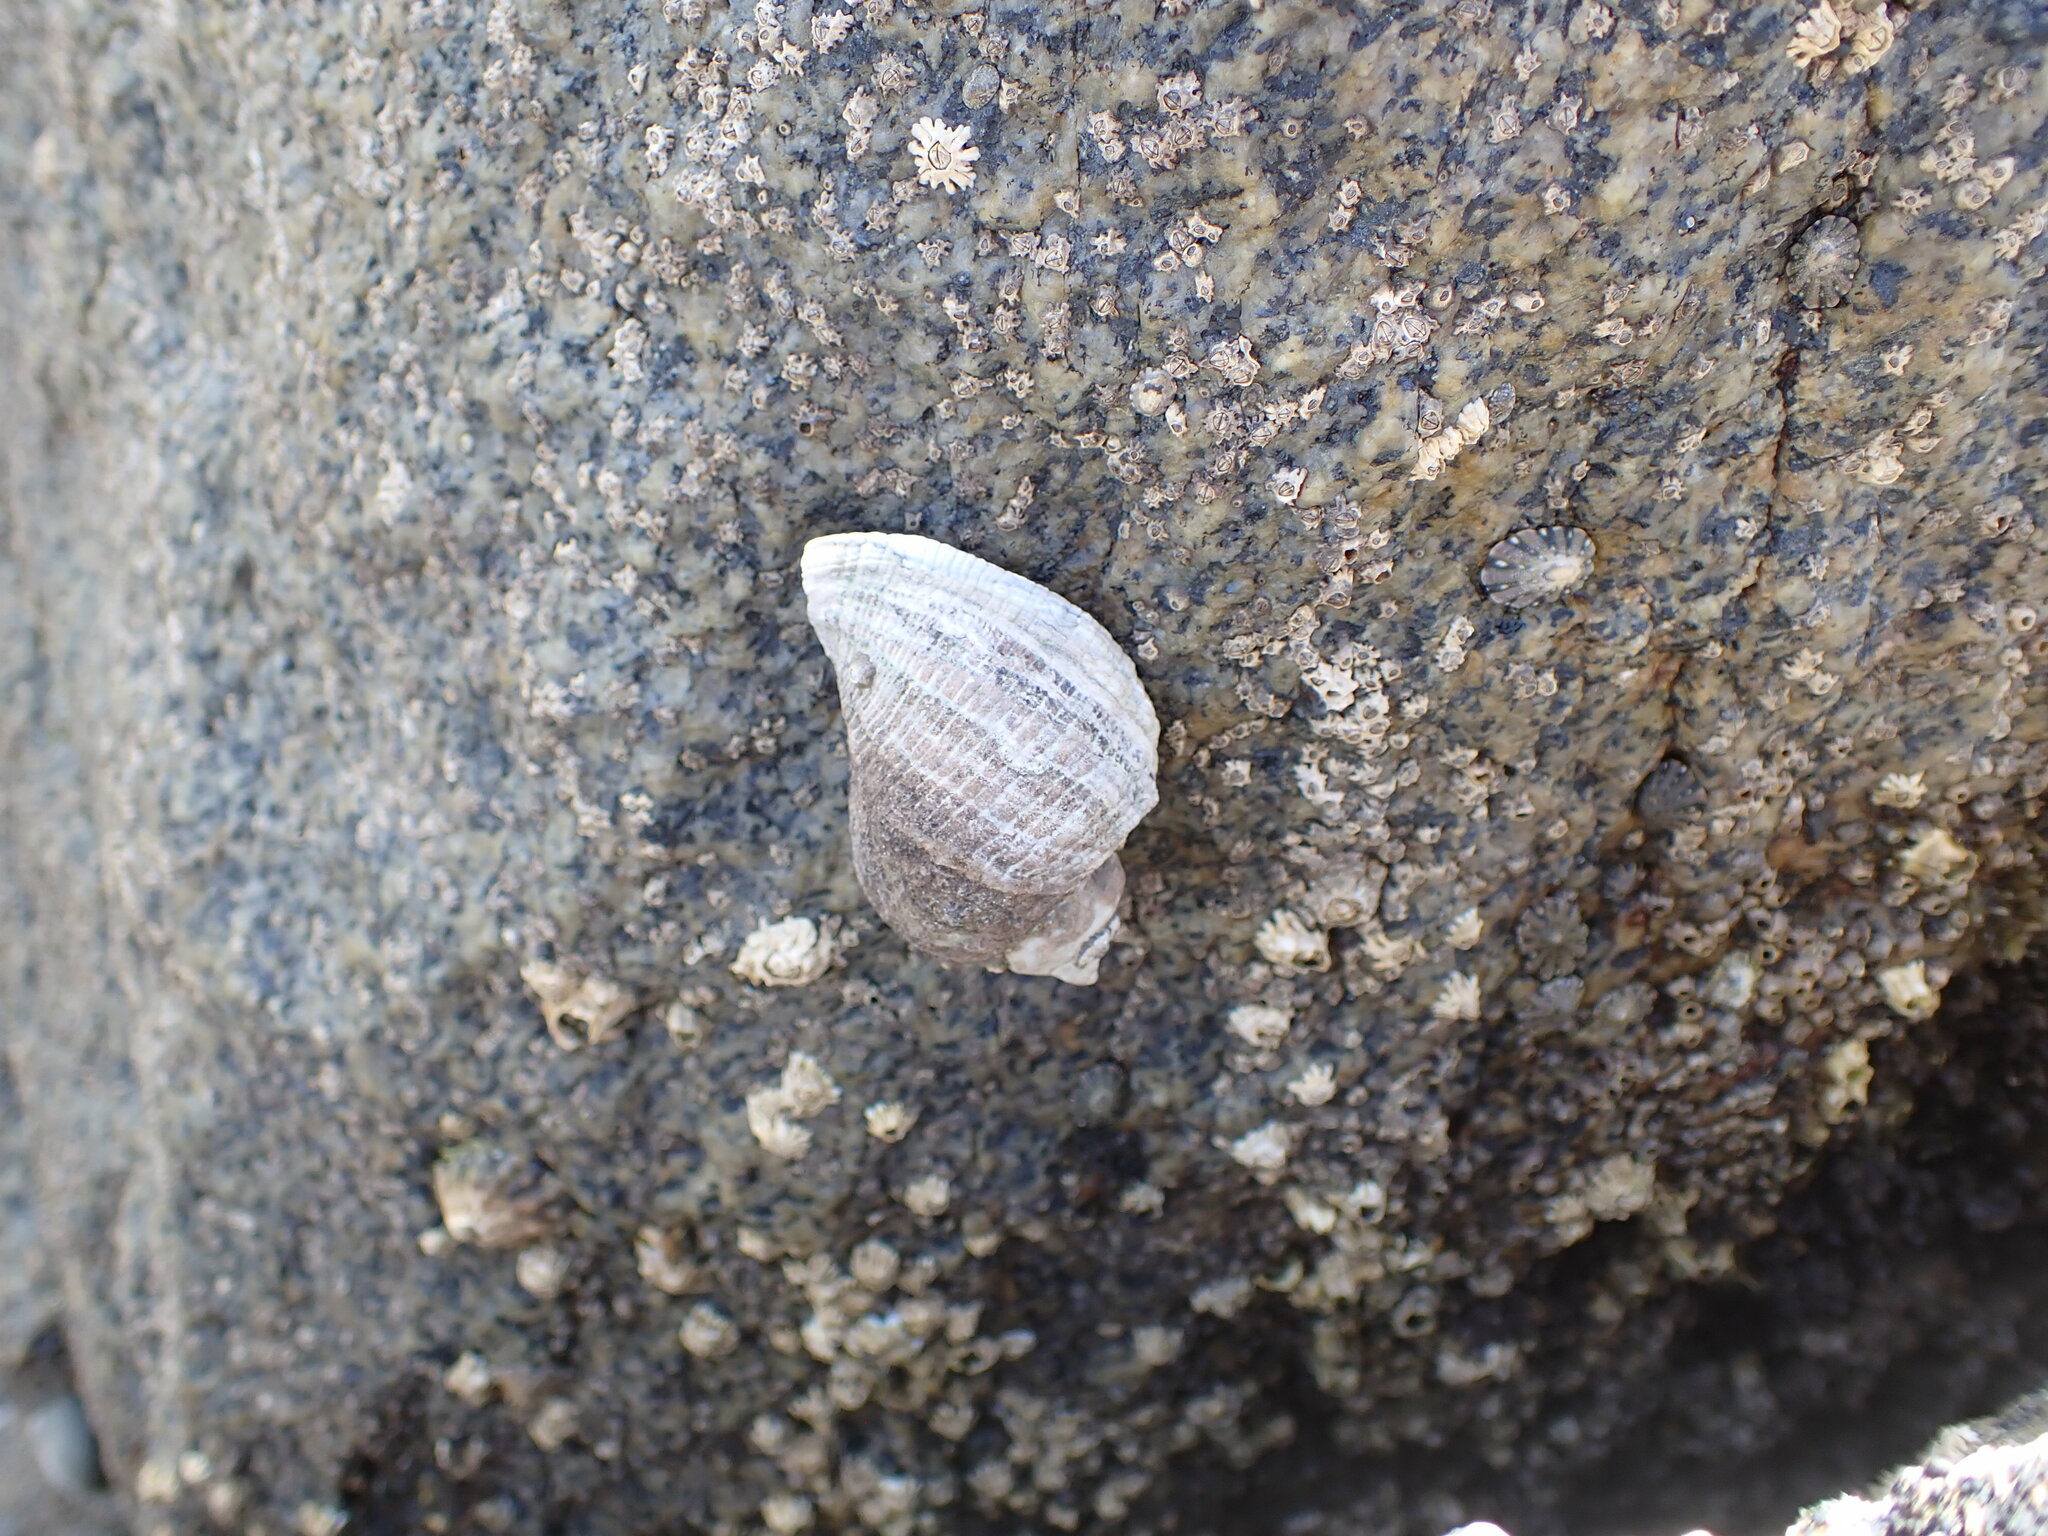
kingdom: Animalia
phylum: Mollusca
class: Gastropoda
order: Neogastropoda
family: Muricidae
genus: Haustrum
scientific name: Haustrum haustorium
